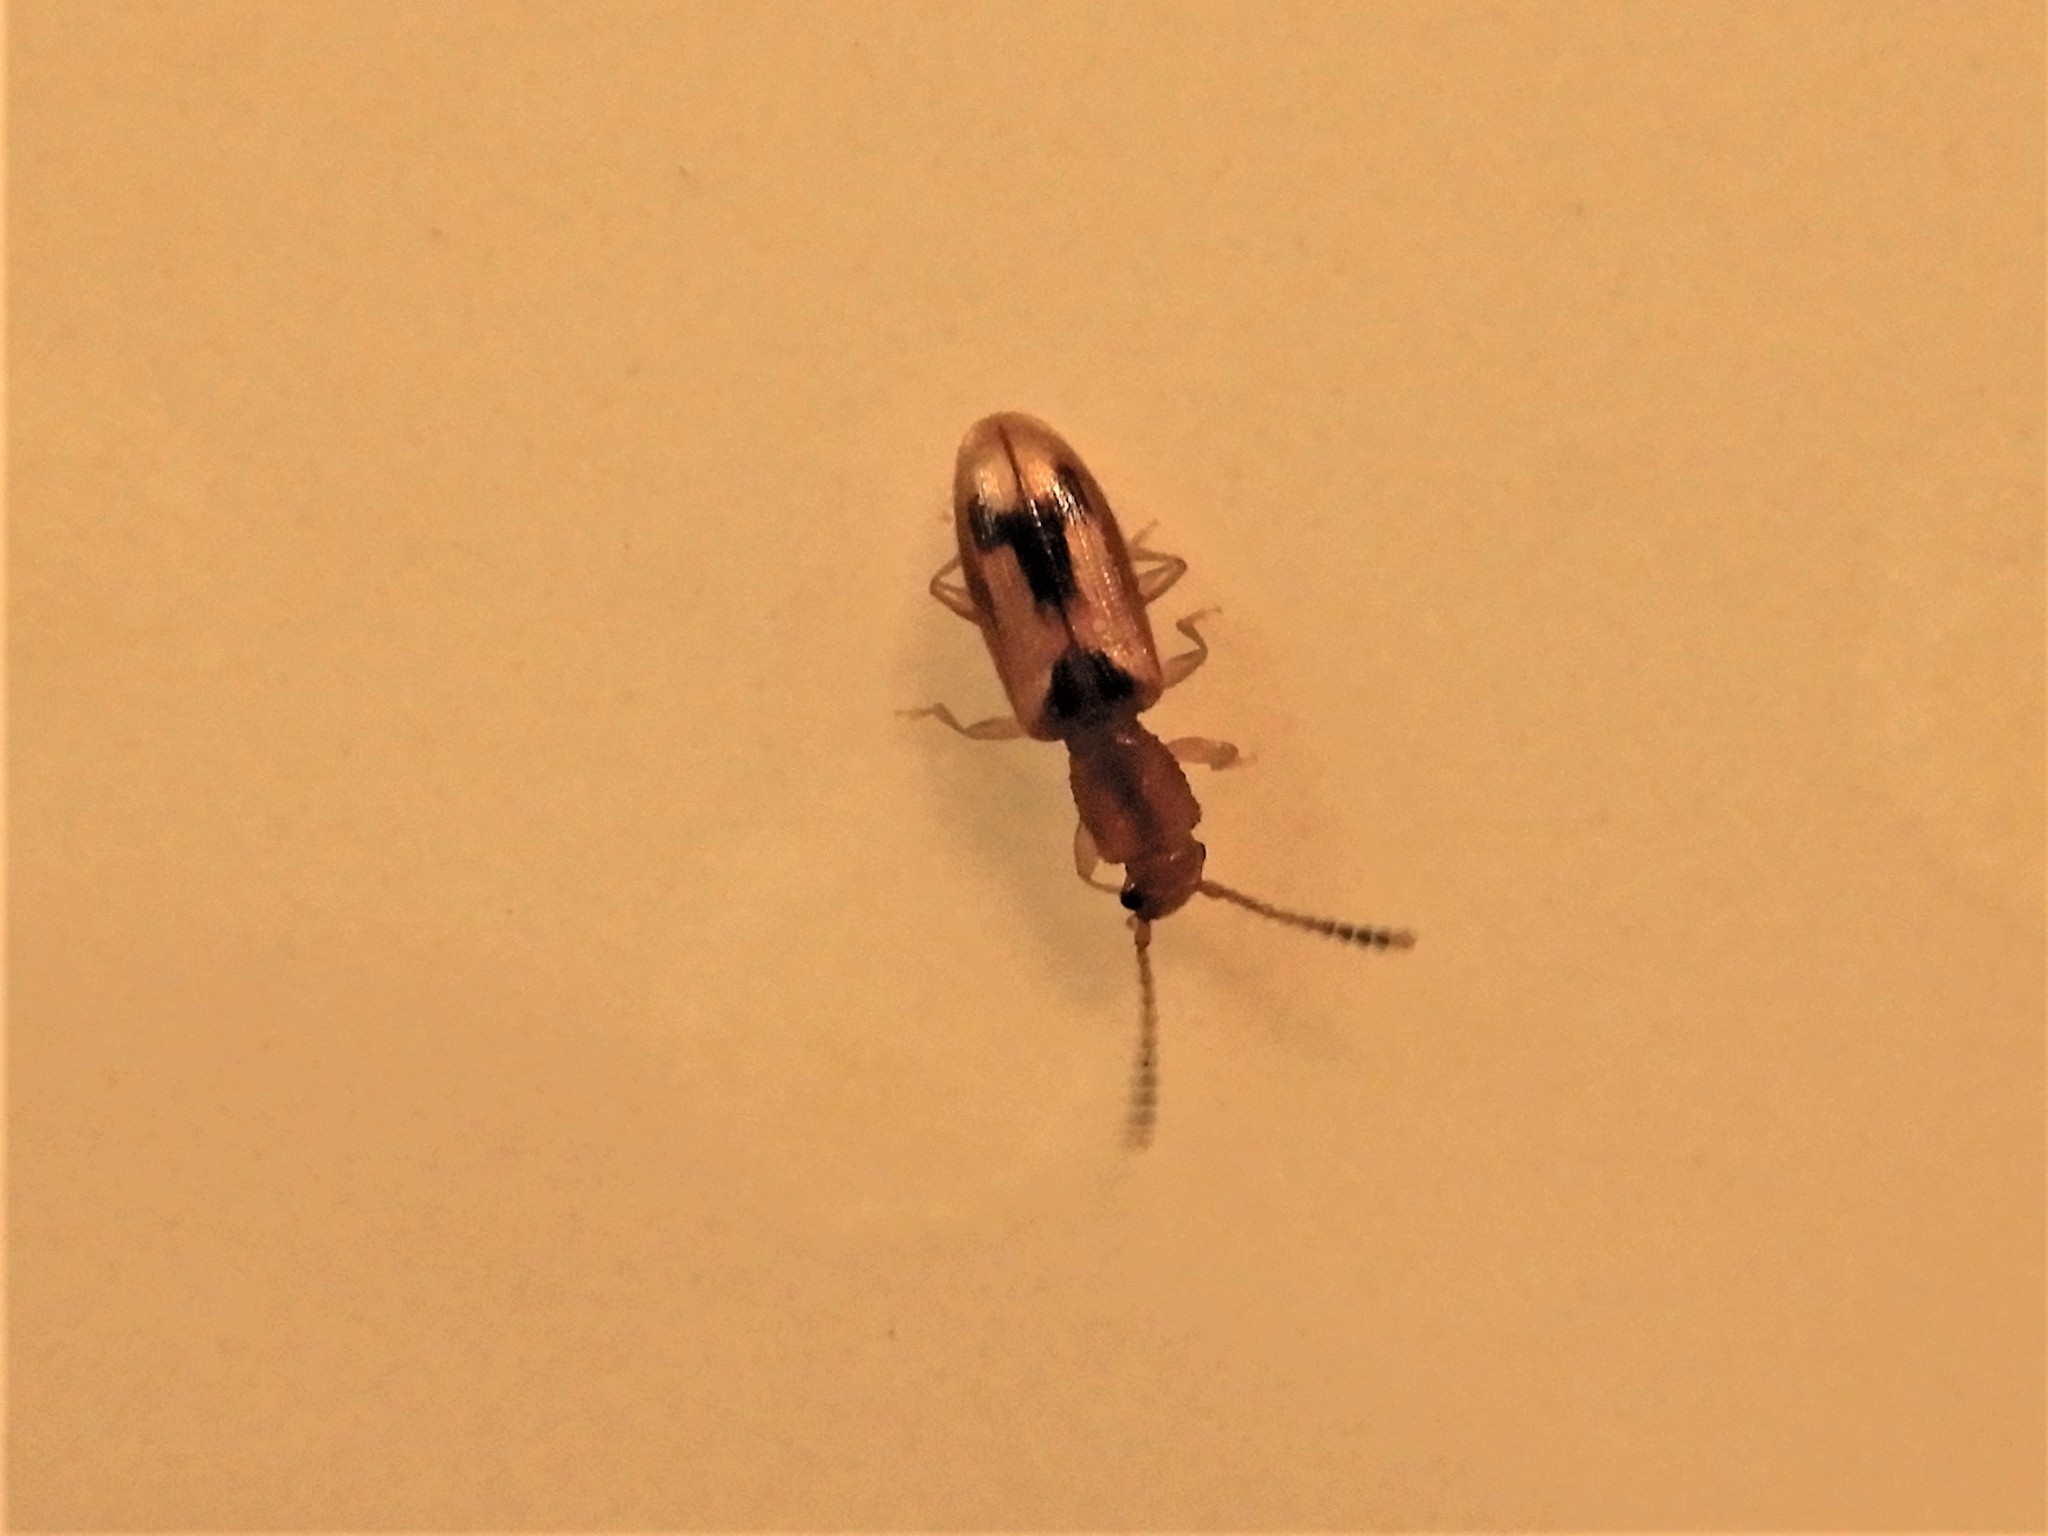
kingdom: Animalia
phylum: Arthropoda
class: Insecta
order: Coleoptera
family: Silvanidae
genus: Cryptamorpha
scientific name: Cryptamorpha desjardinsi
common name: Cryptamorpha
